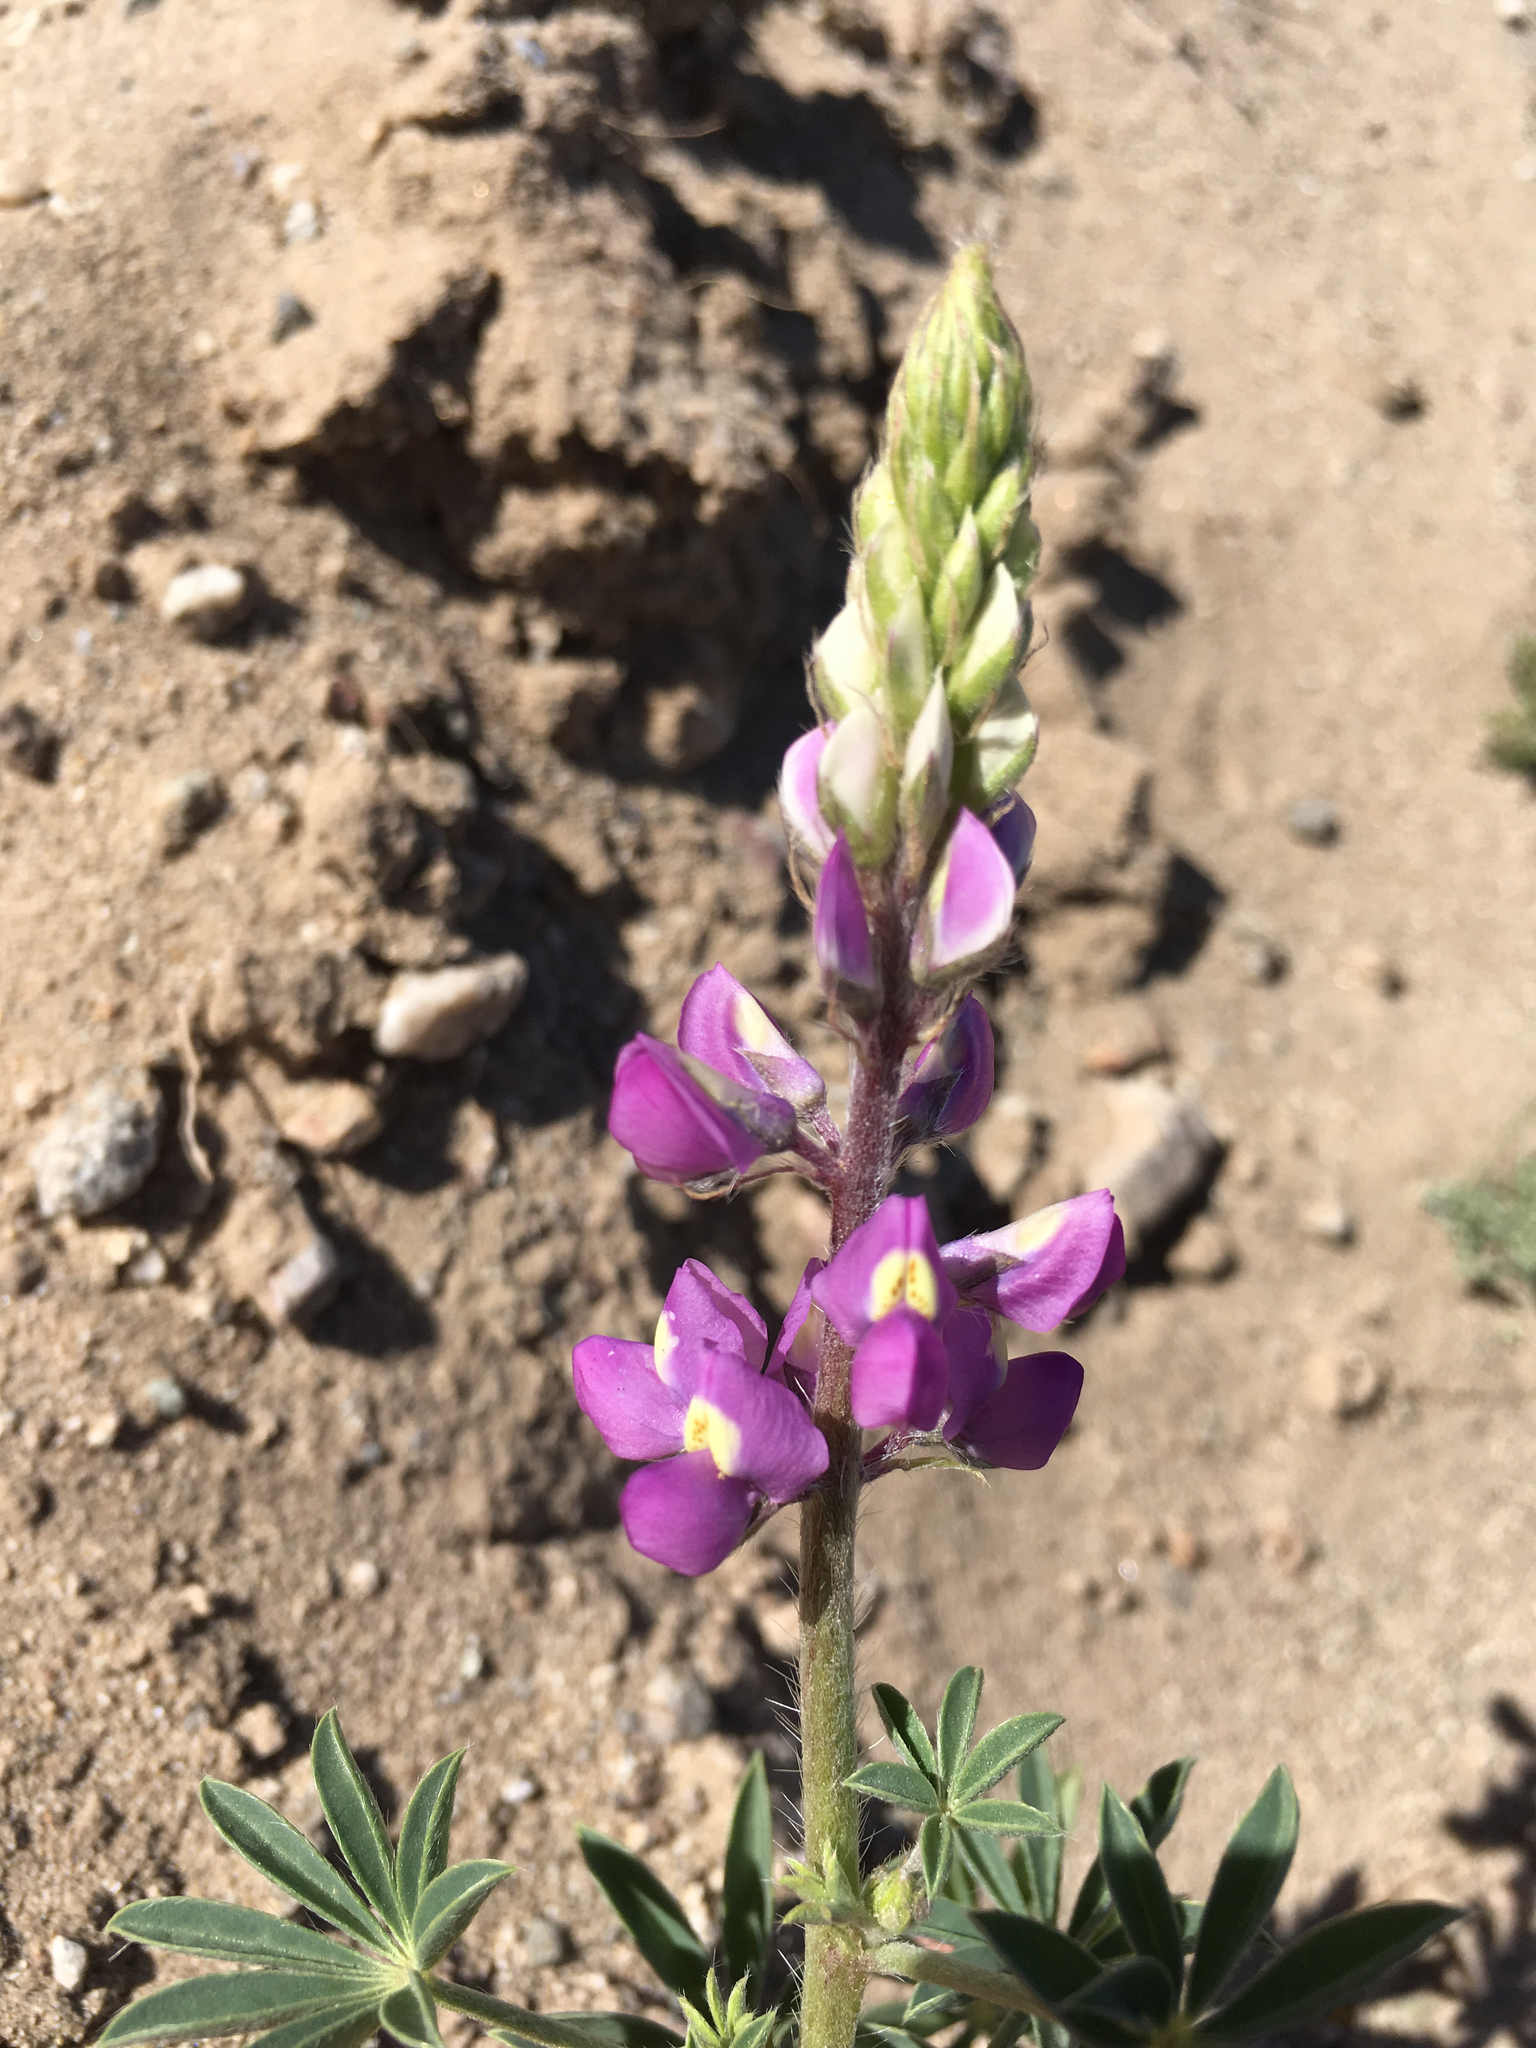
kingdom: Plantae
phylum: Tracheophyta
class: Magnoliopsida
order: Fabales
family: Fabaceae
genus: Lupinus
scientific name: Lupinus arizonicus
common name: Arizona lupine
